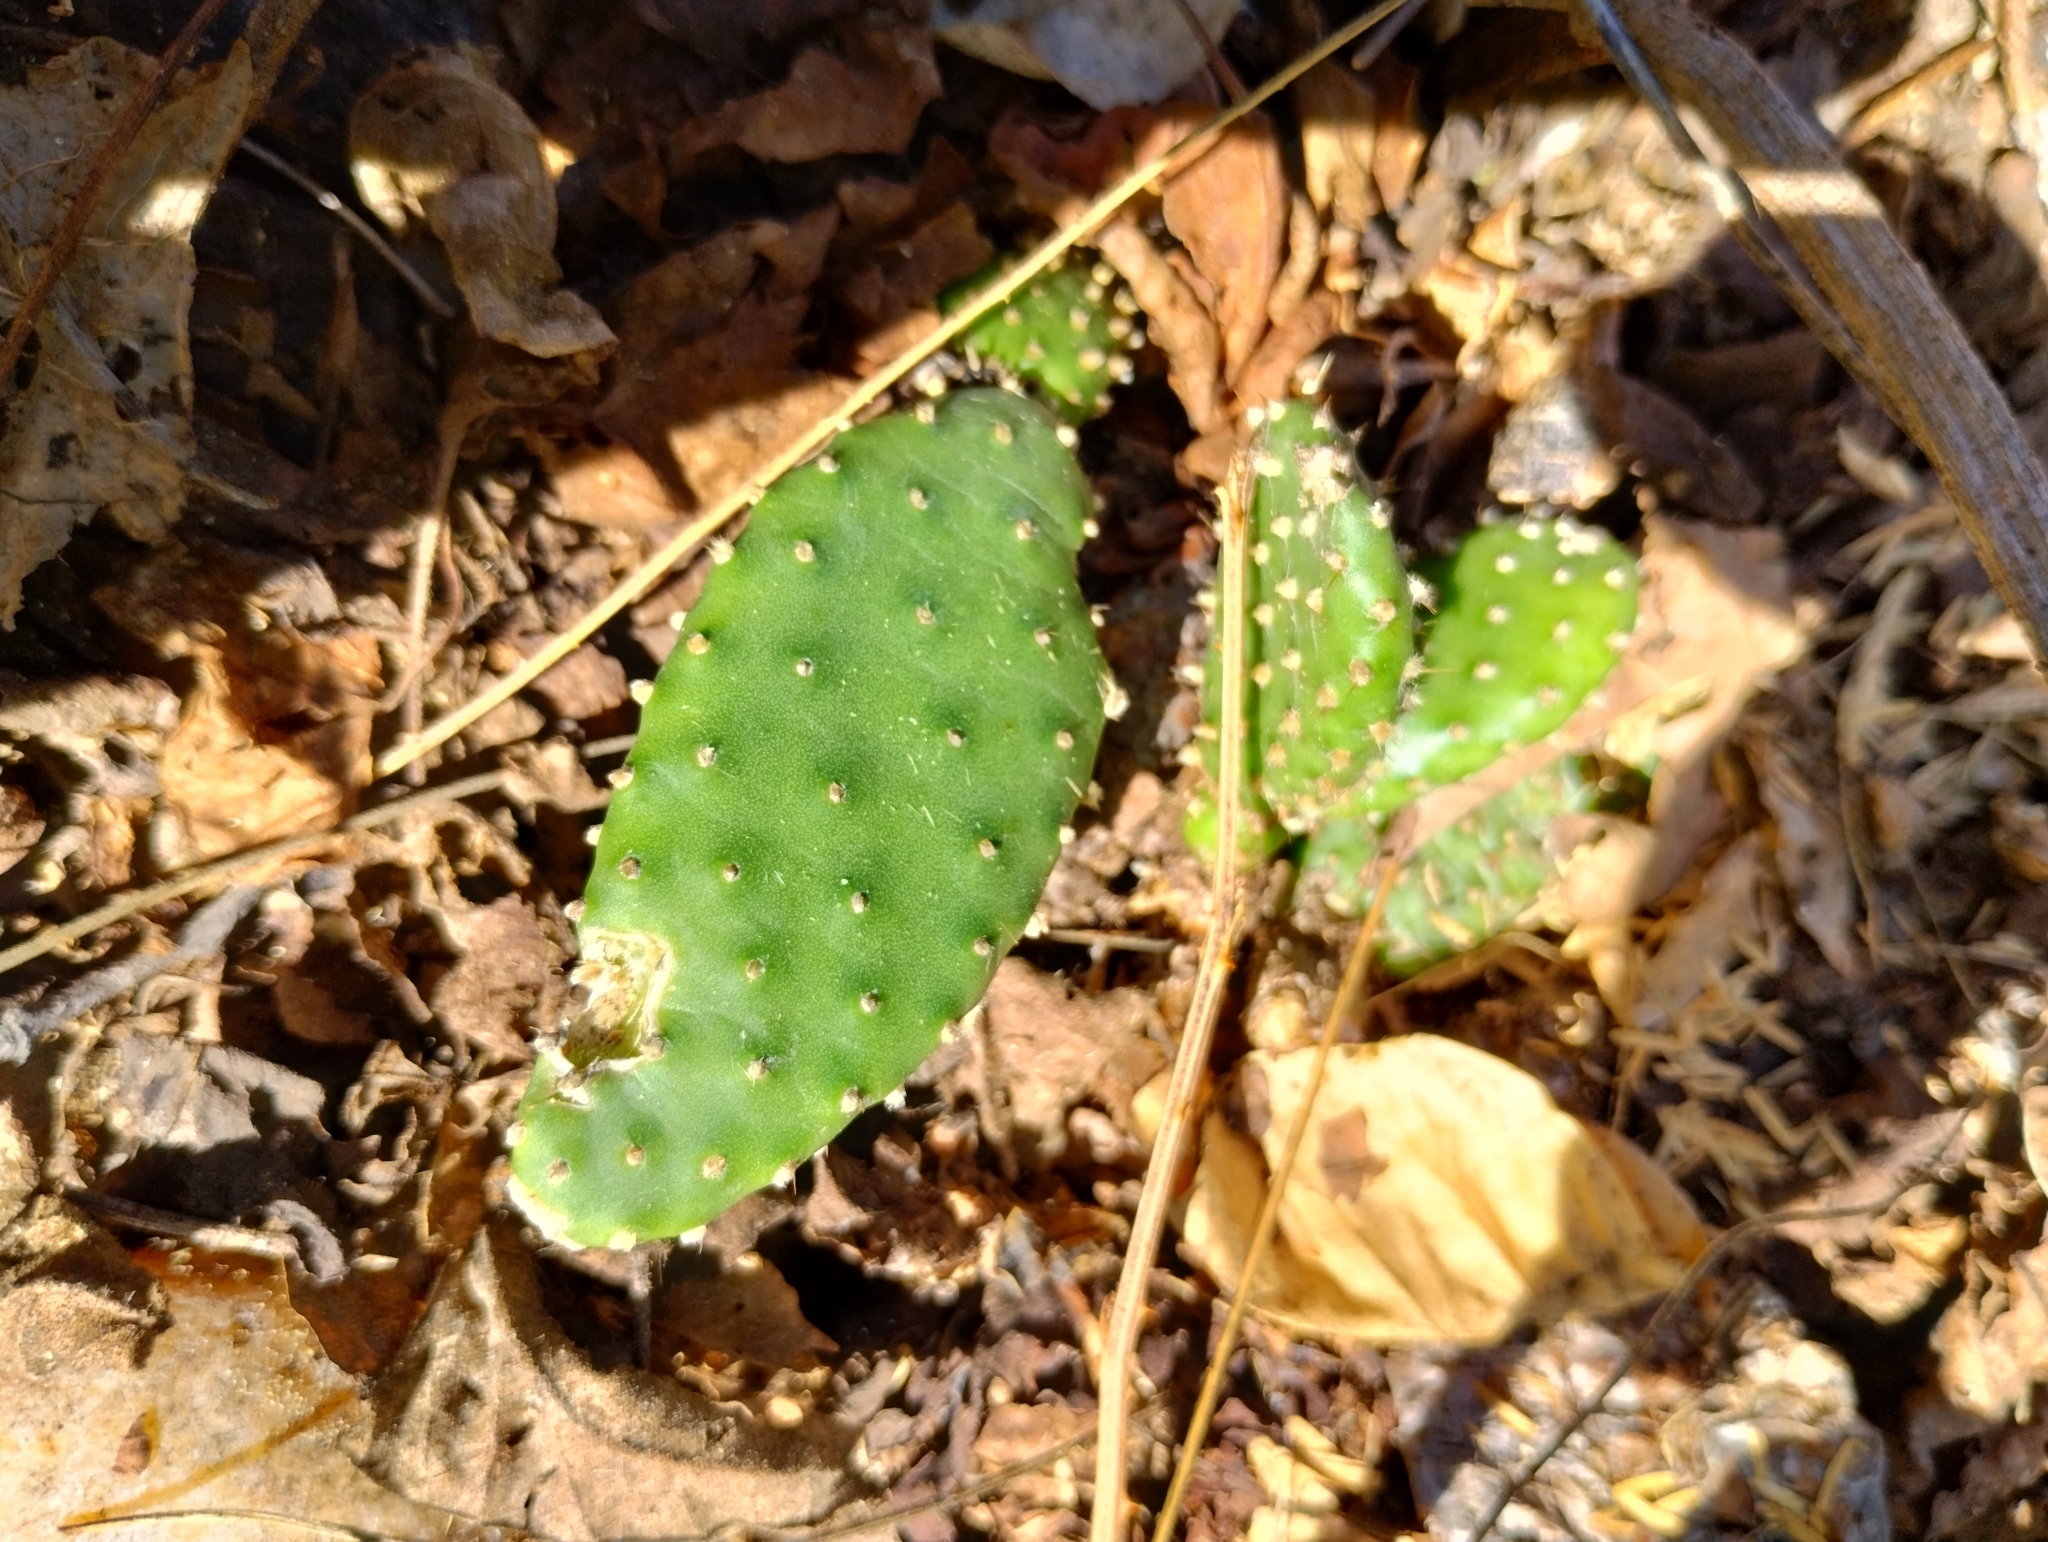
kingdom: Plantae
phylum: Tracheophyta
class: Magnoliopsida
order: Caryophyllales
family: Cactaceae
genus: Tacinga
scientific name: Tacinga inamoena
